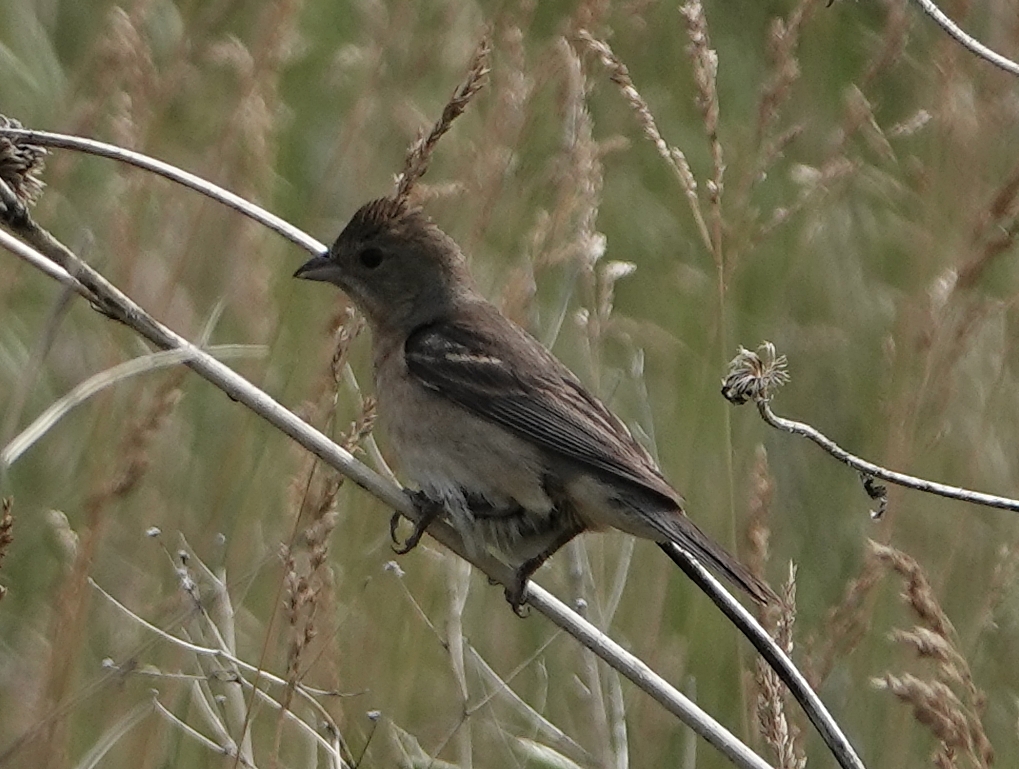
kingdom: Animalia
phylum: Chordata
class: Aves
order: Passeriformes
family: Cardinalidae
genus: Passerina
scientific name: Passerina amoena
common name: Lazuli bunting
